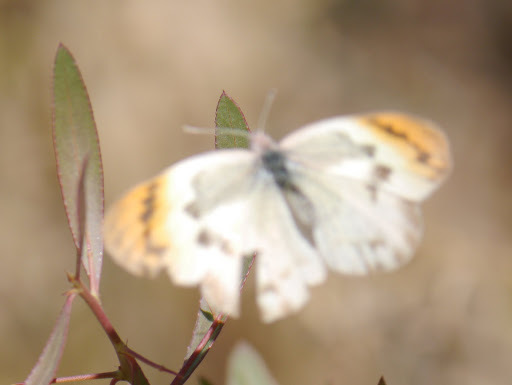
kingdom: Animalia
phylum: Arthropoda
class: Insecta
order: Lepidoptera
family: Pieridae
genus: Colotis
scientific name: Colotis evenina
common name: Common orange tip
